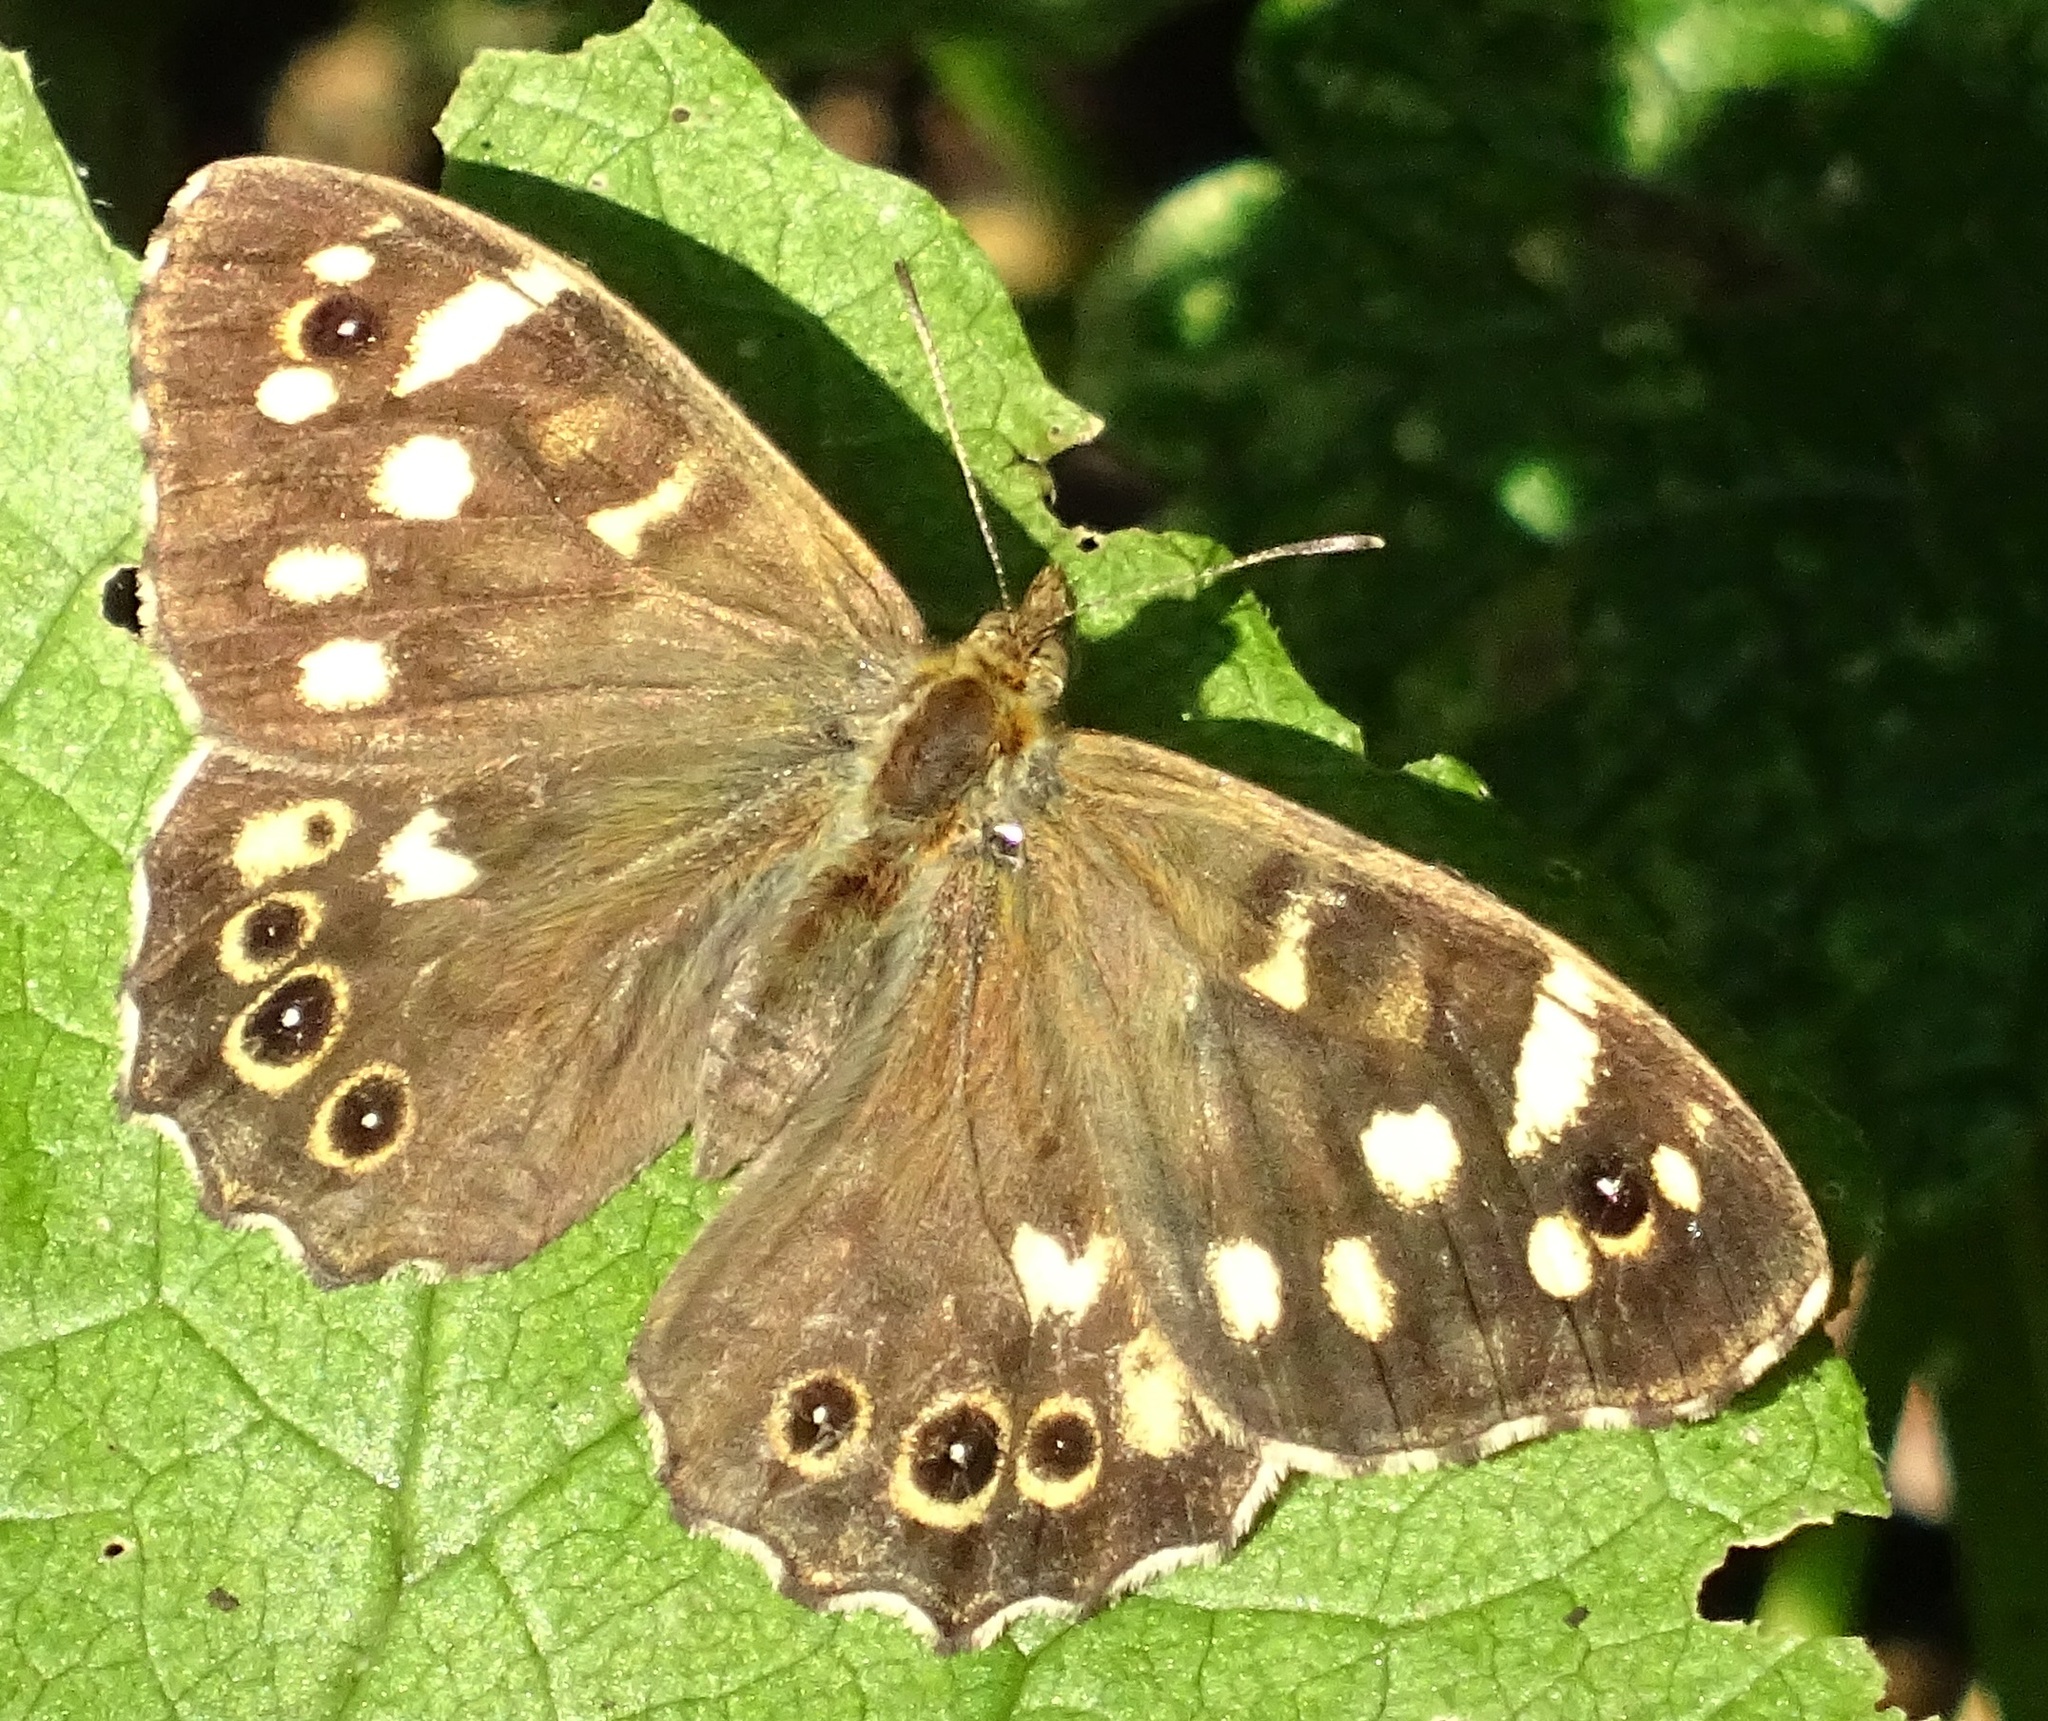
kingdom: Animalia
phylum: Arthropoda
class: Insecta
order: Lepidoptera
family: Nymphalidae
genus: Pararge
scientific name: Pararge aegeria
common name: Speckled wood
